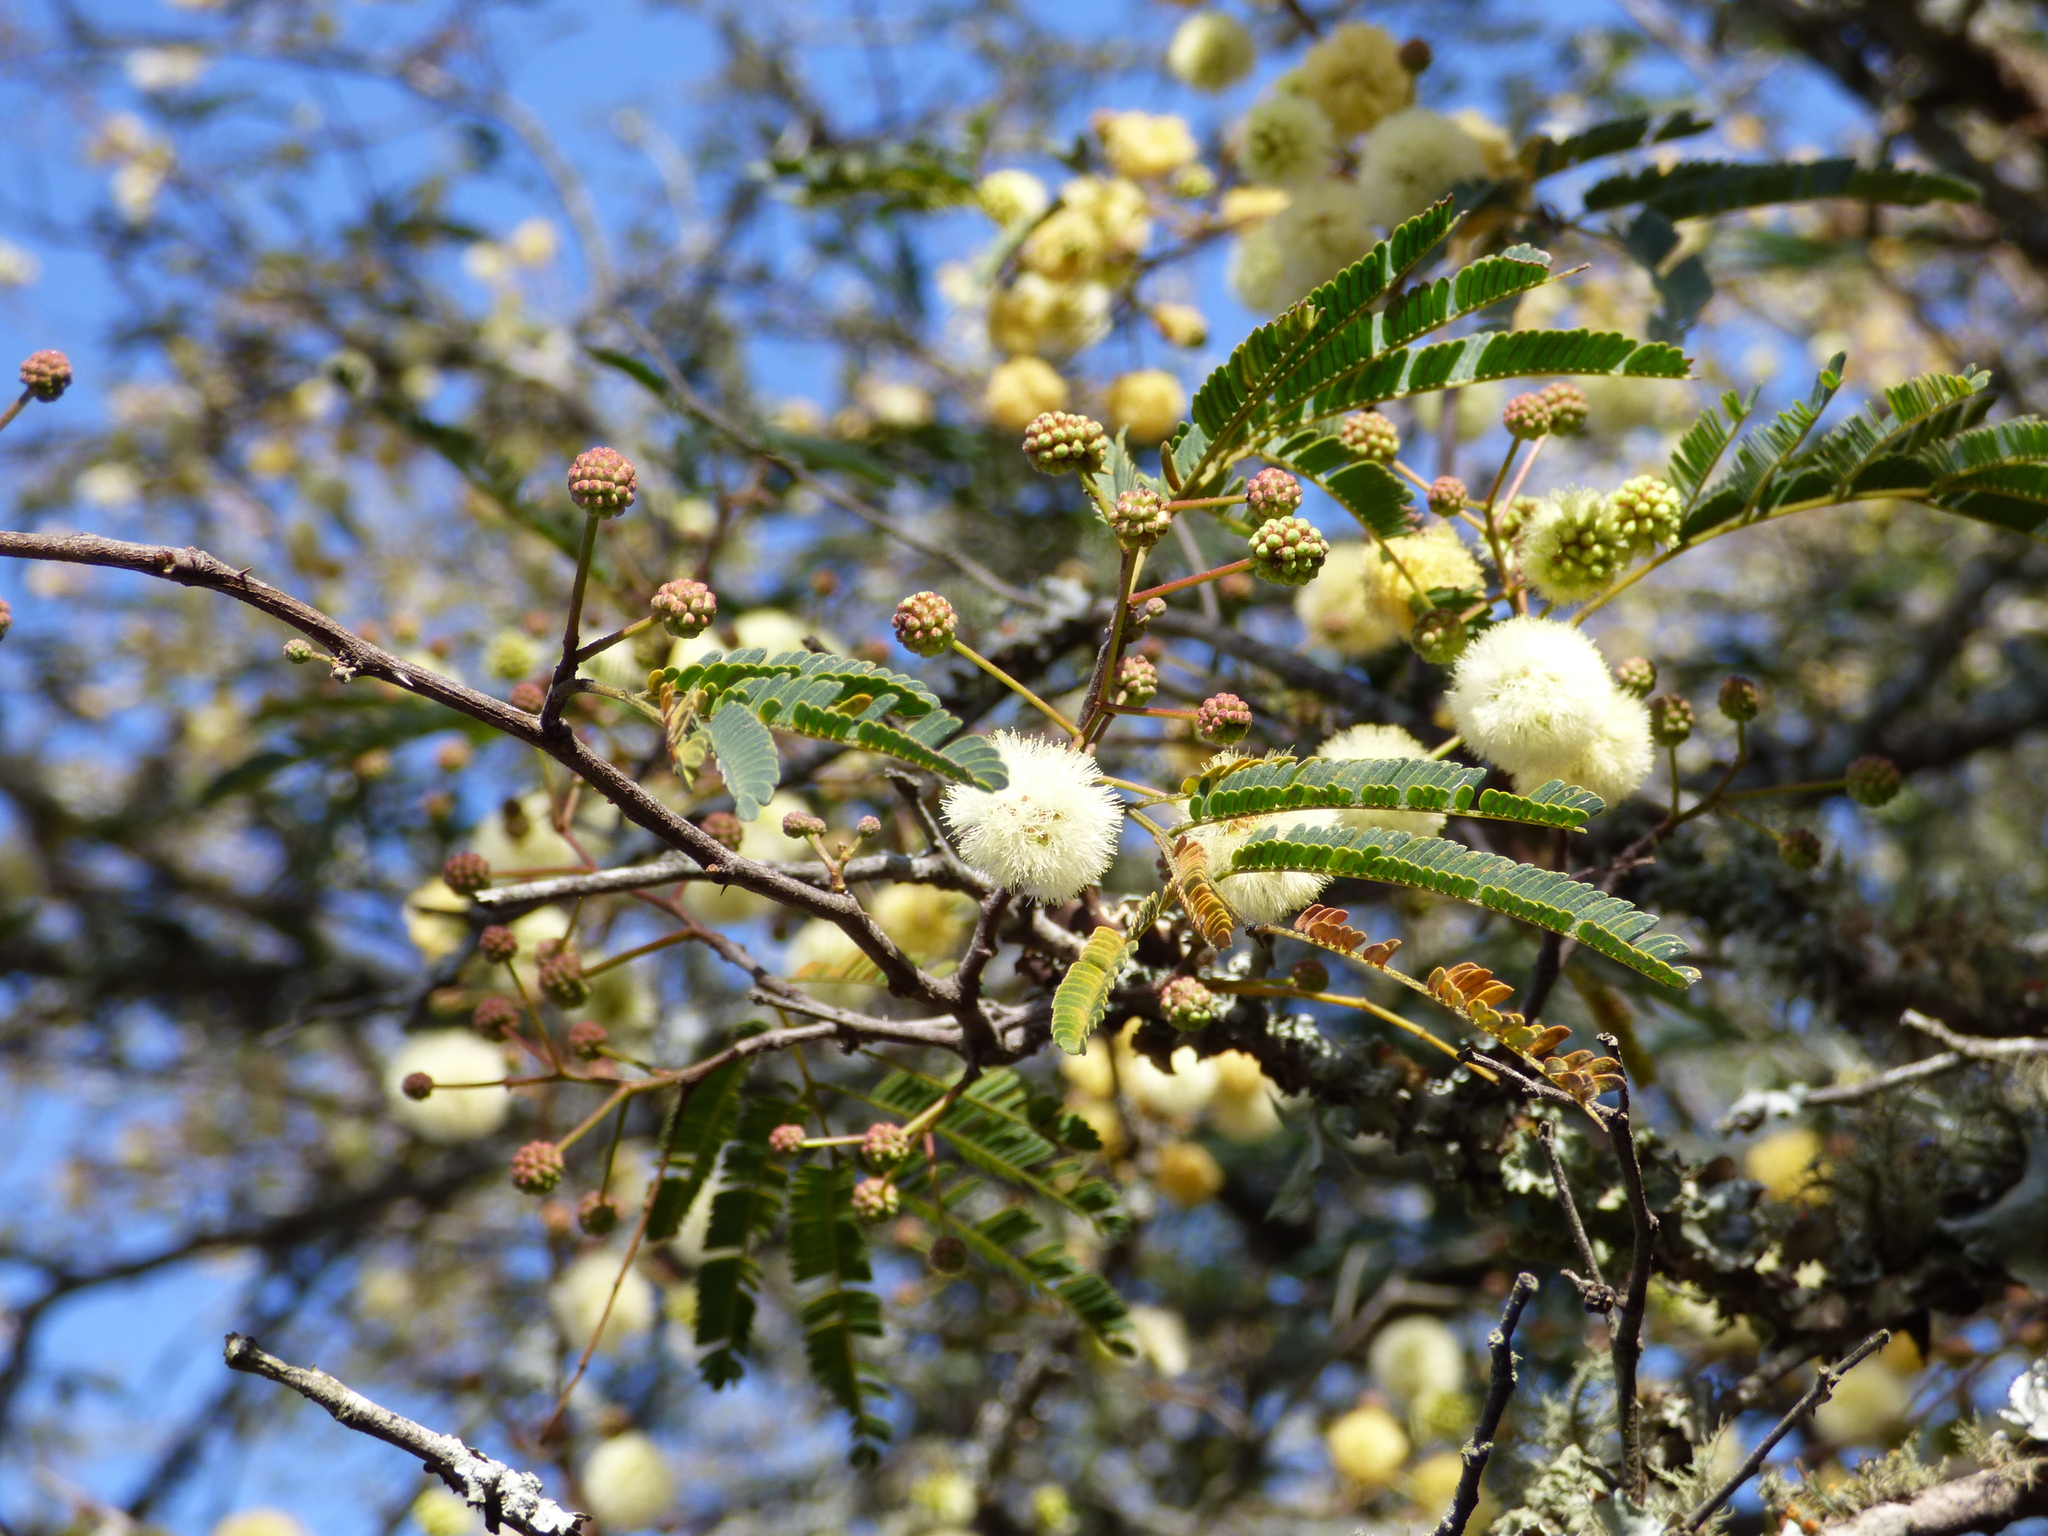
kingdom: Plantae
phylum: Tracheophyta
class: Magnoliopsida
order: Fabales
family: Fabaceae
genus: Senegalia
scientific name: Senegalia praecox
